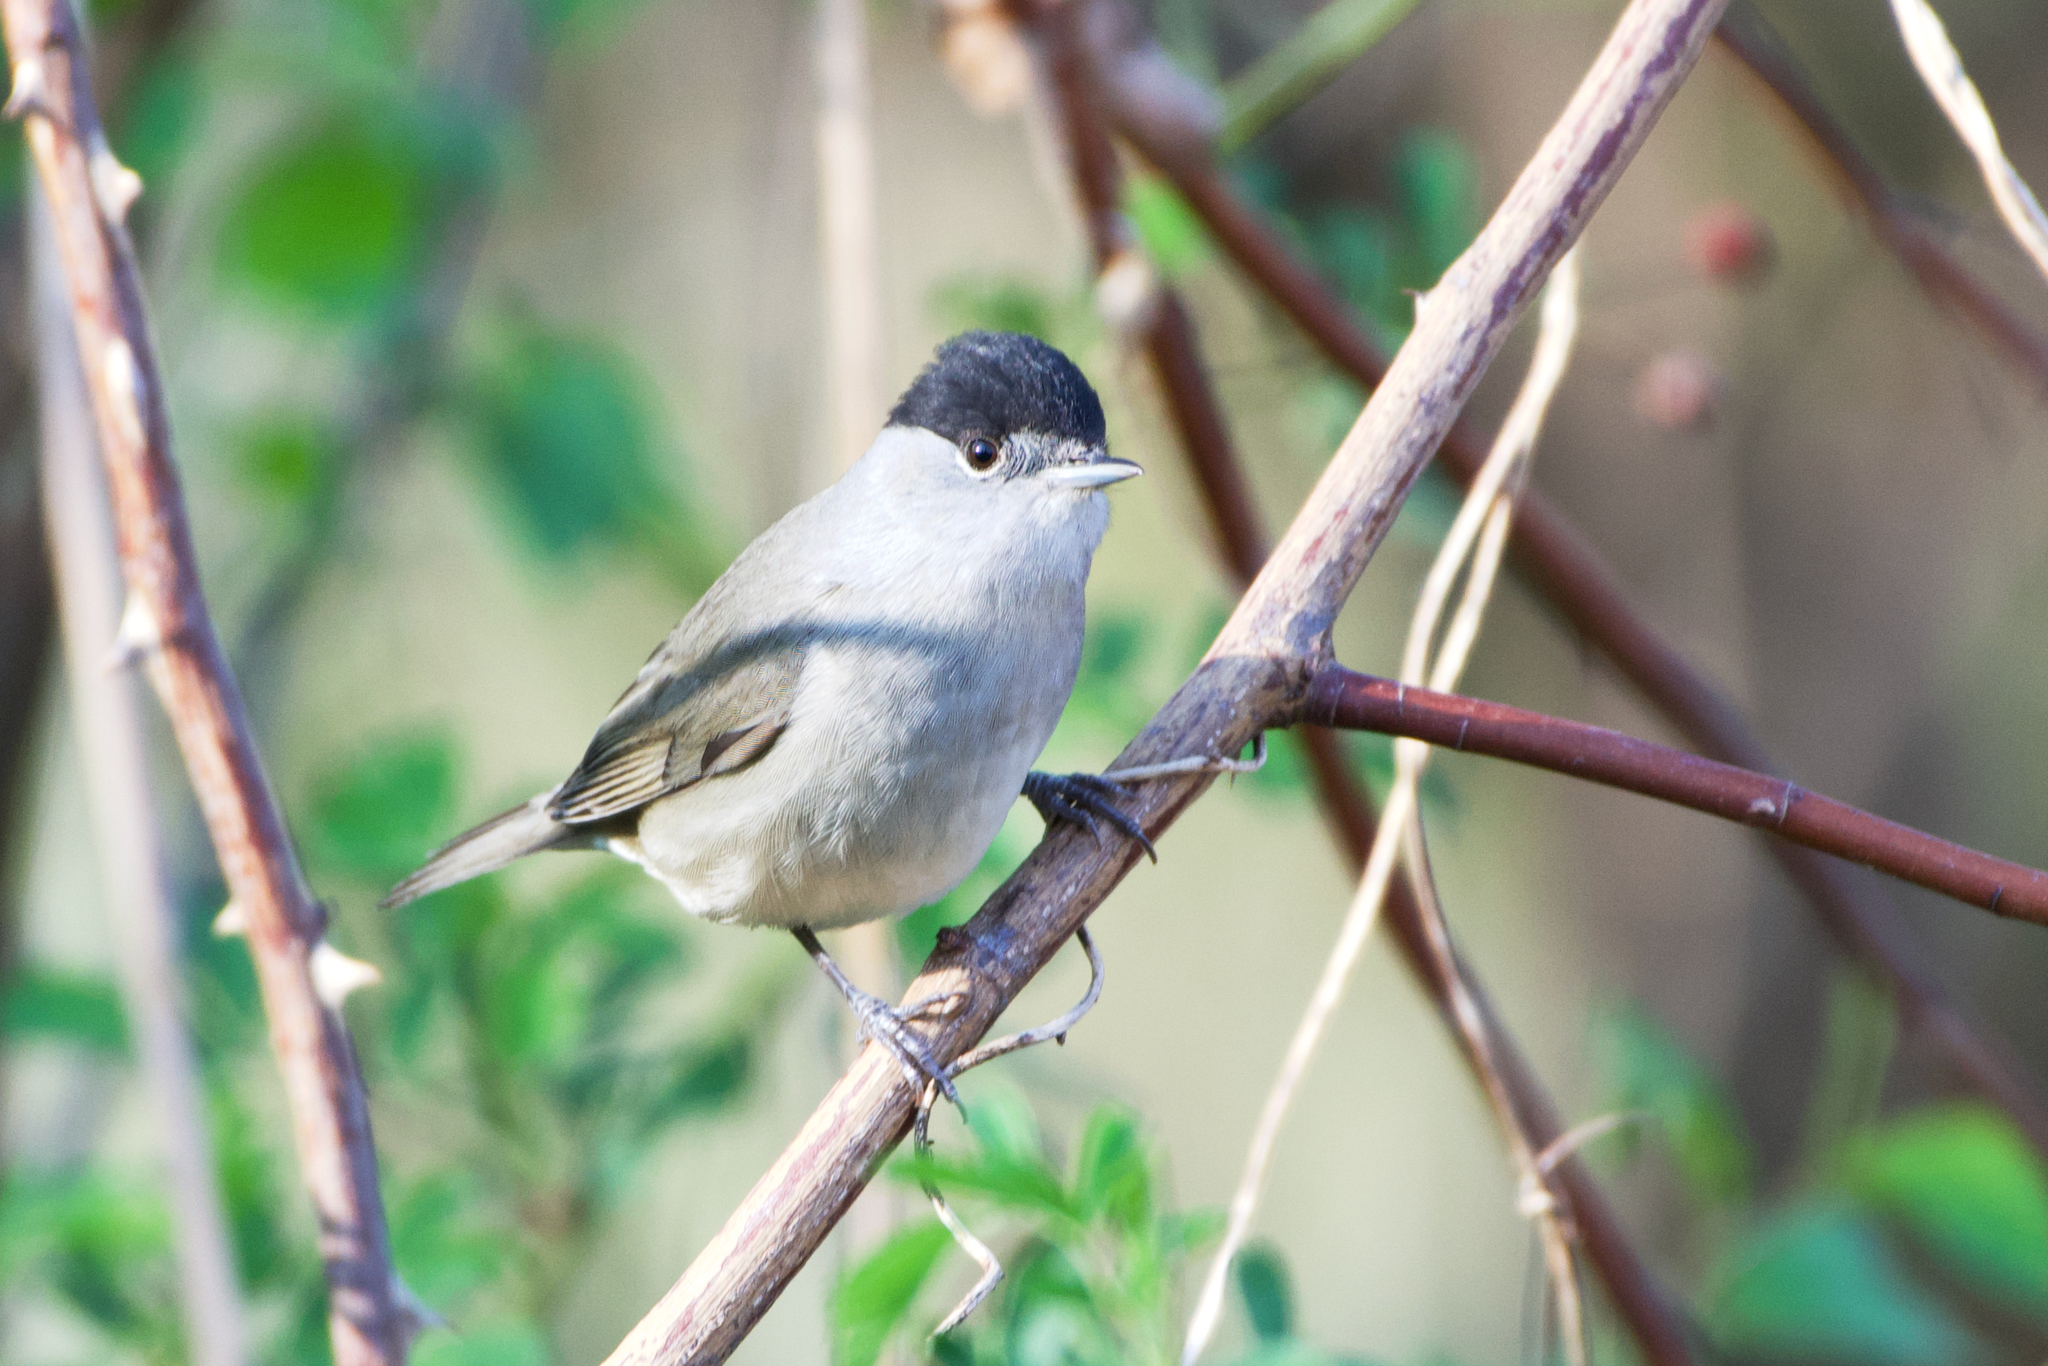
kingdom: Animalia
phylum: Chordata
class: Aves
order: Passeriformes
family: Sylviidae
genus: Sylvia
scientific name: Sylvia atricapilla
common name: Eurasian blackcap
